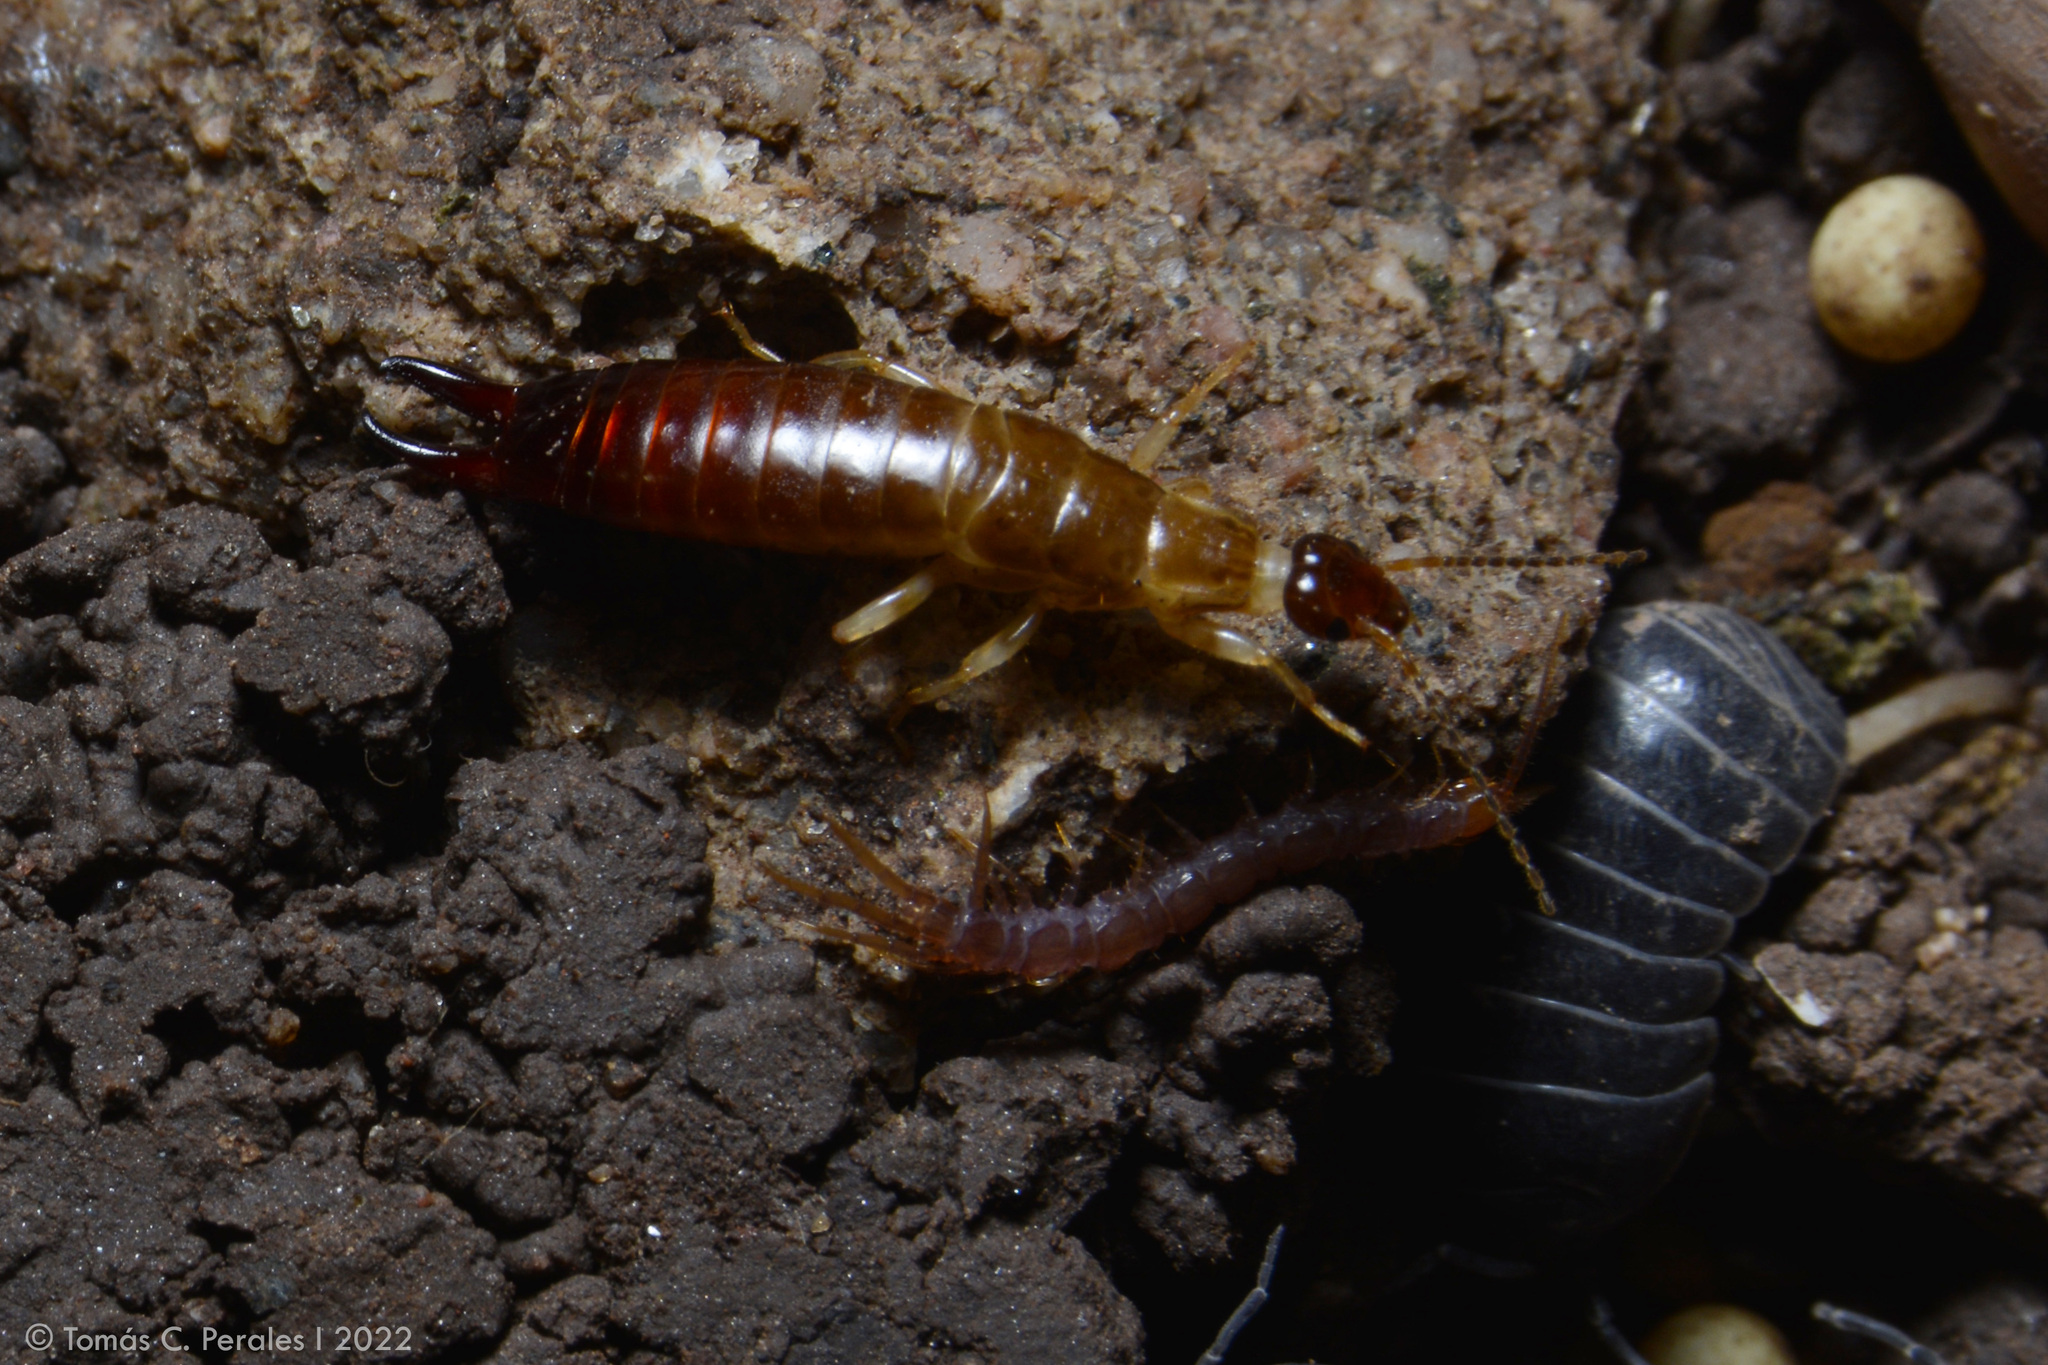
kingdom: Animalia
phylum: Arthropoda
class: Insecta
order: Dermaptera
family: Anisolabididae
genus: Euborellia
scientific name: Euborellia annulipes
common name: Ringlegged earwig
